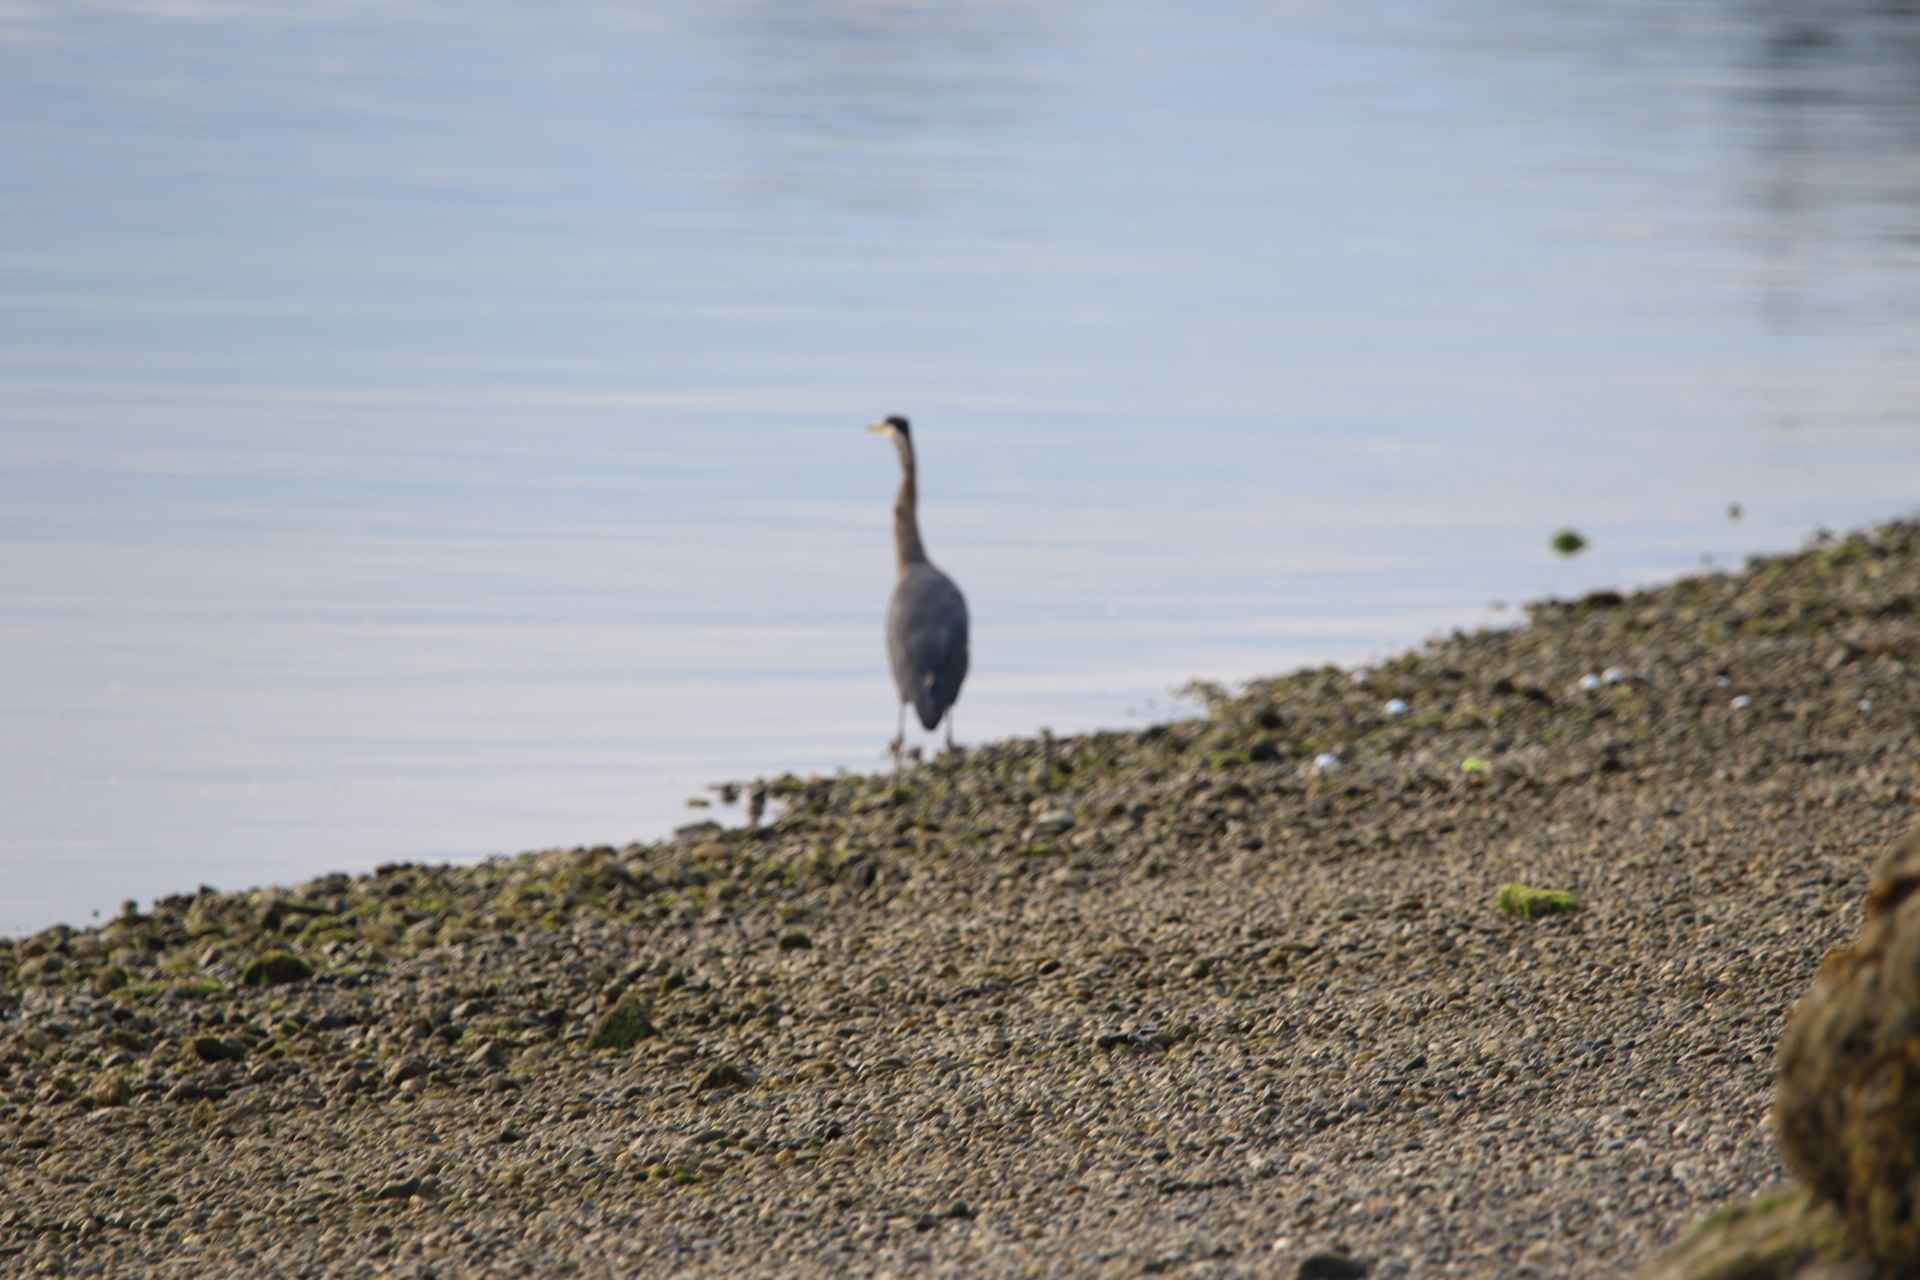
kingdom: Animalia
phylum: Chordata
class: Aves
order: Pelecaniformes
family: Ardeidae
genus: Ardea
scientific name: Ardea herodias
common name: Great blue heron
